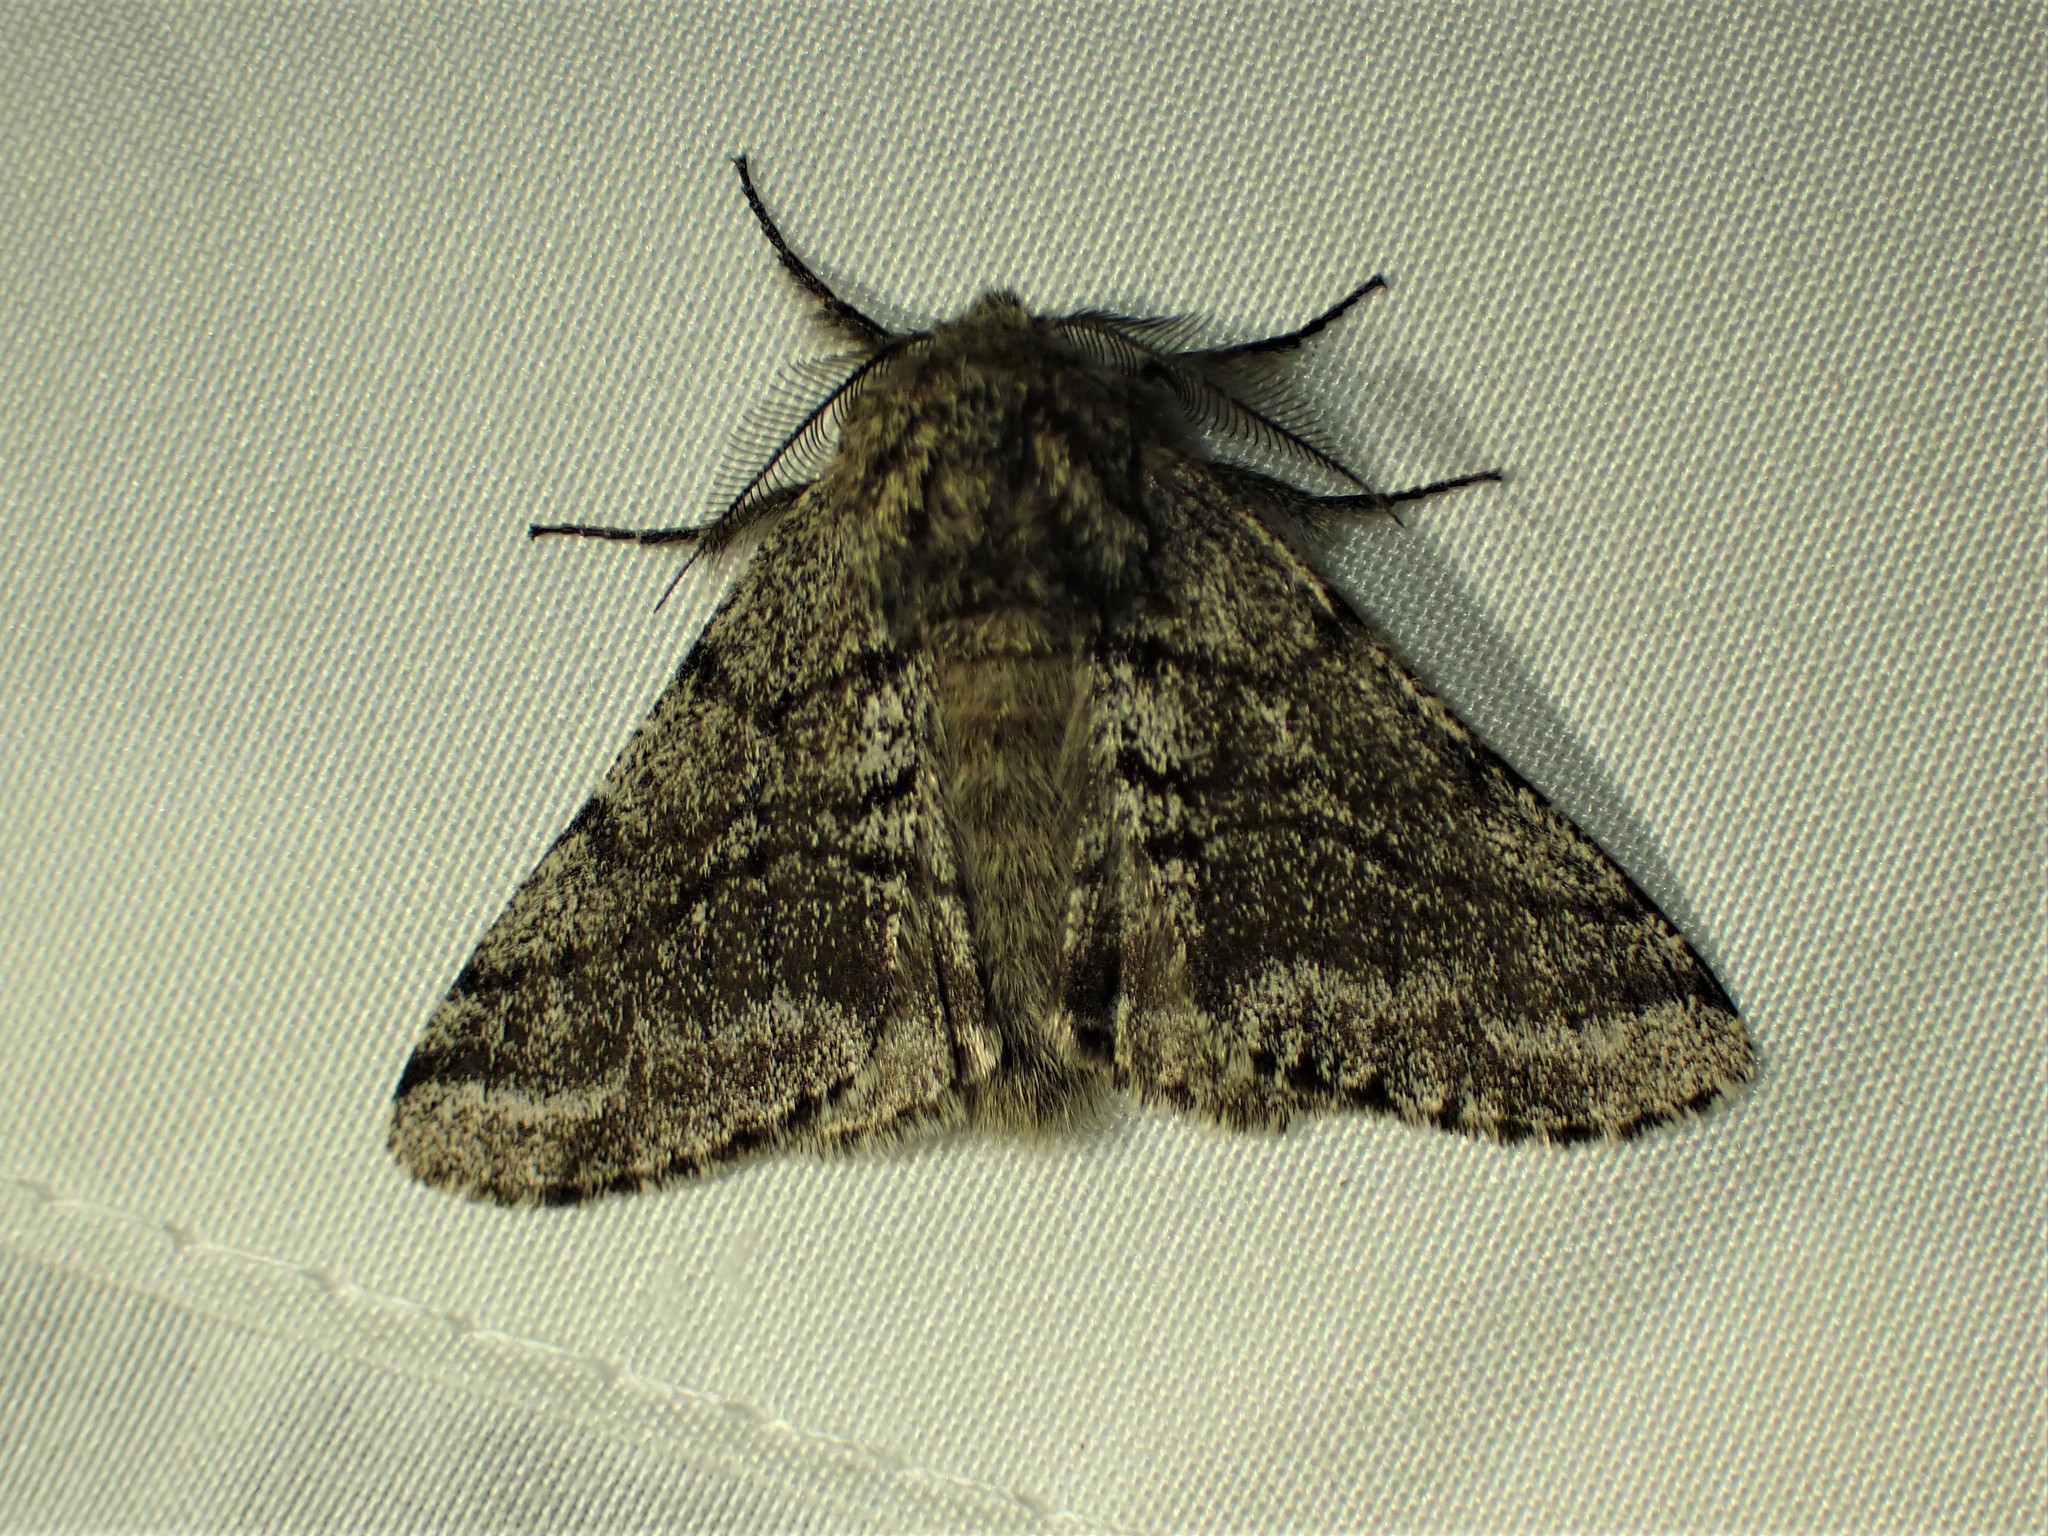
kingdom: Animalia
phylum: Arthropoda
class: Insecta
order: Lepidoptera
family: Geometridae
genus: Lycia
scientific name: Lycia ursaria
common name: Stout spanworm
